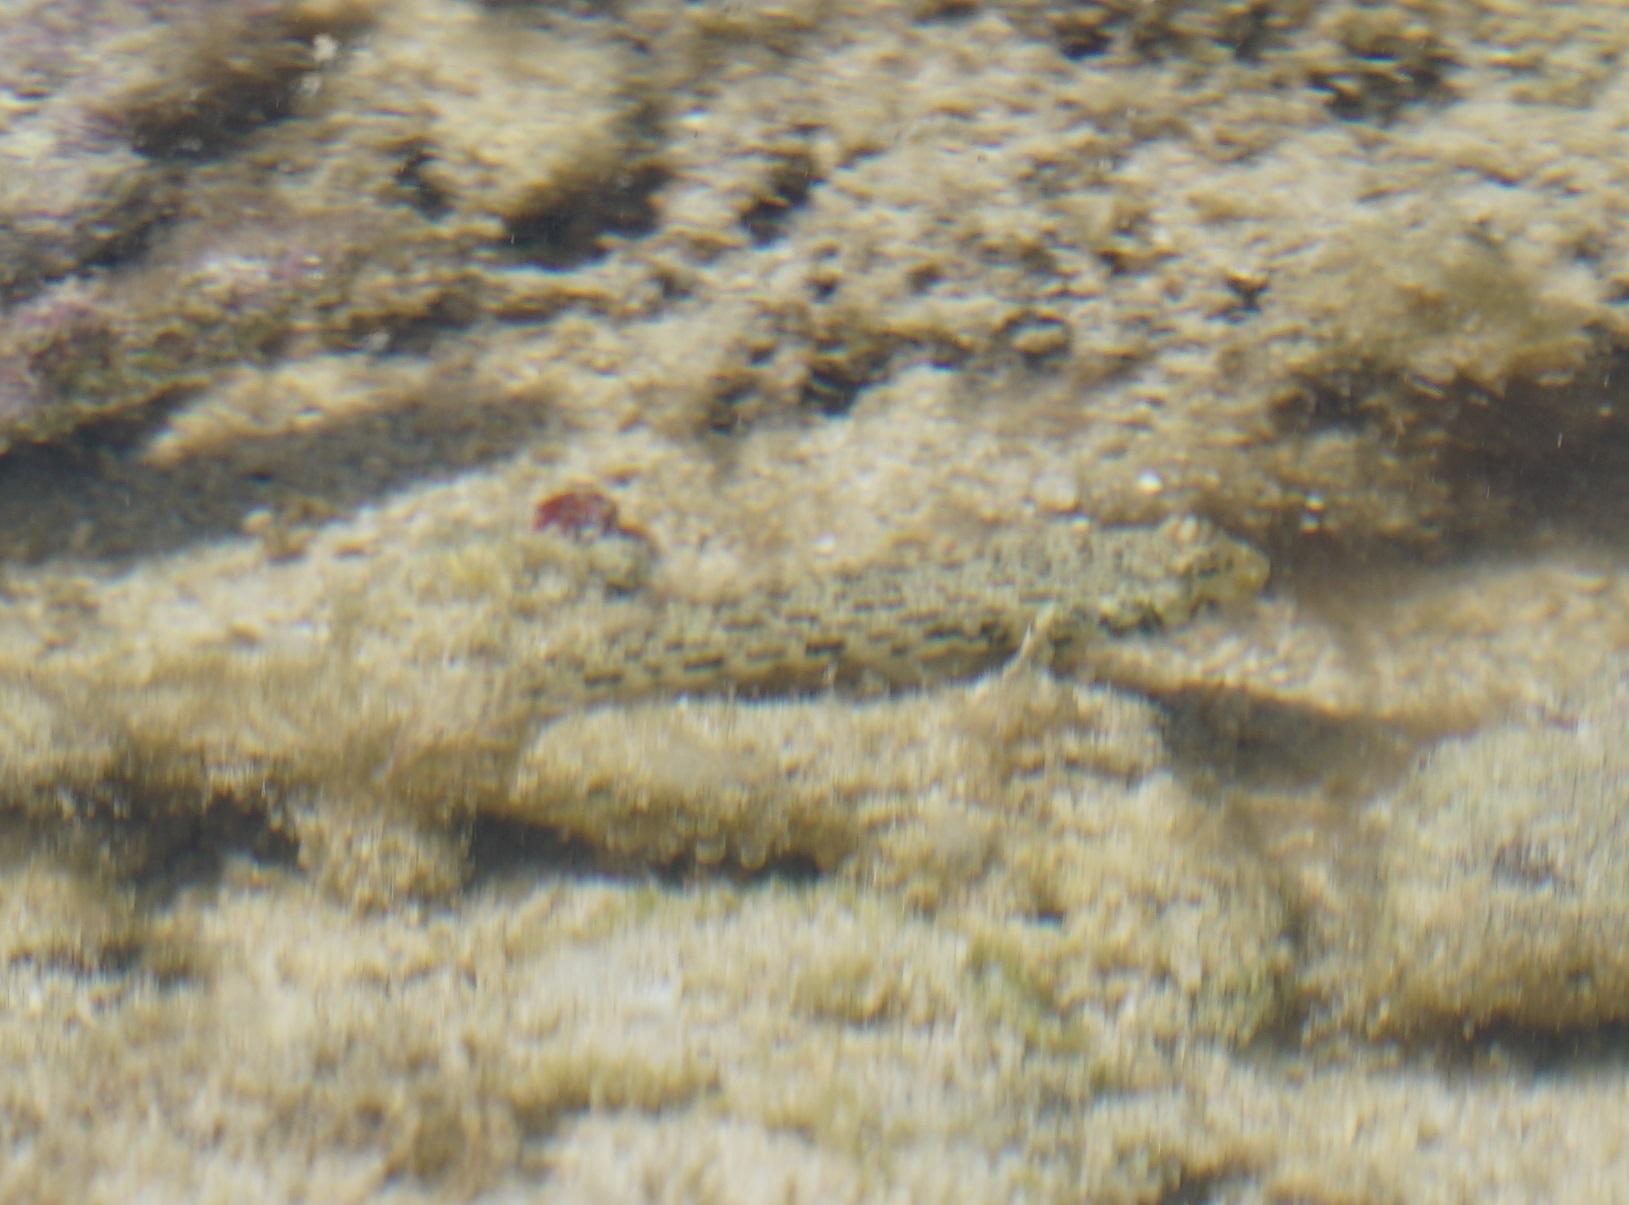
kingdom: Animalia
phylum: Chordata
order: Perciformes
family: Gobiidae
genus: Istigobius
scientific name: Istigobius ornatus
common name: Ornate goby
